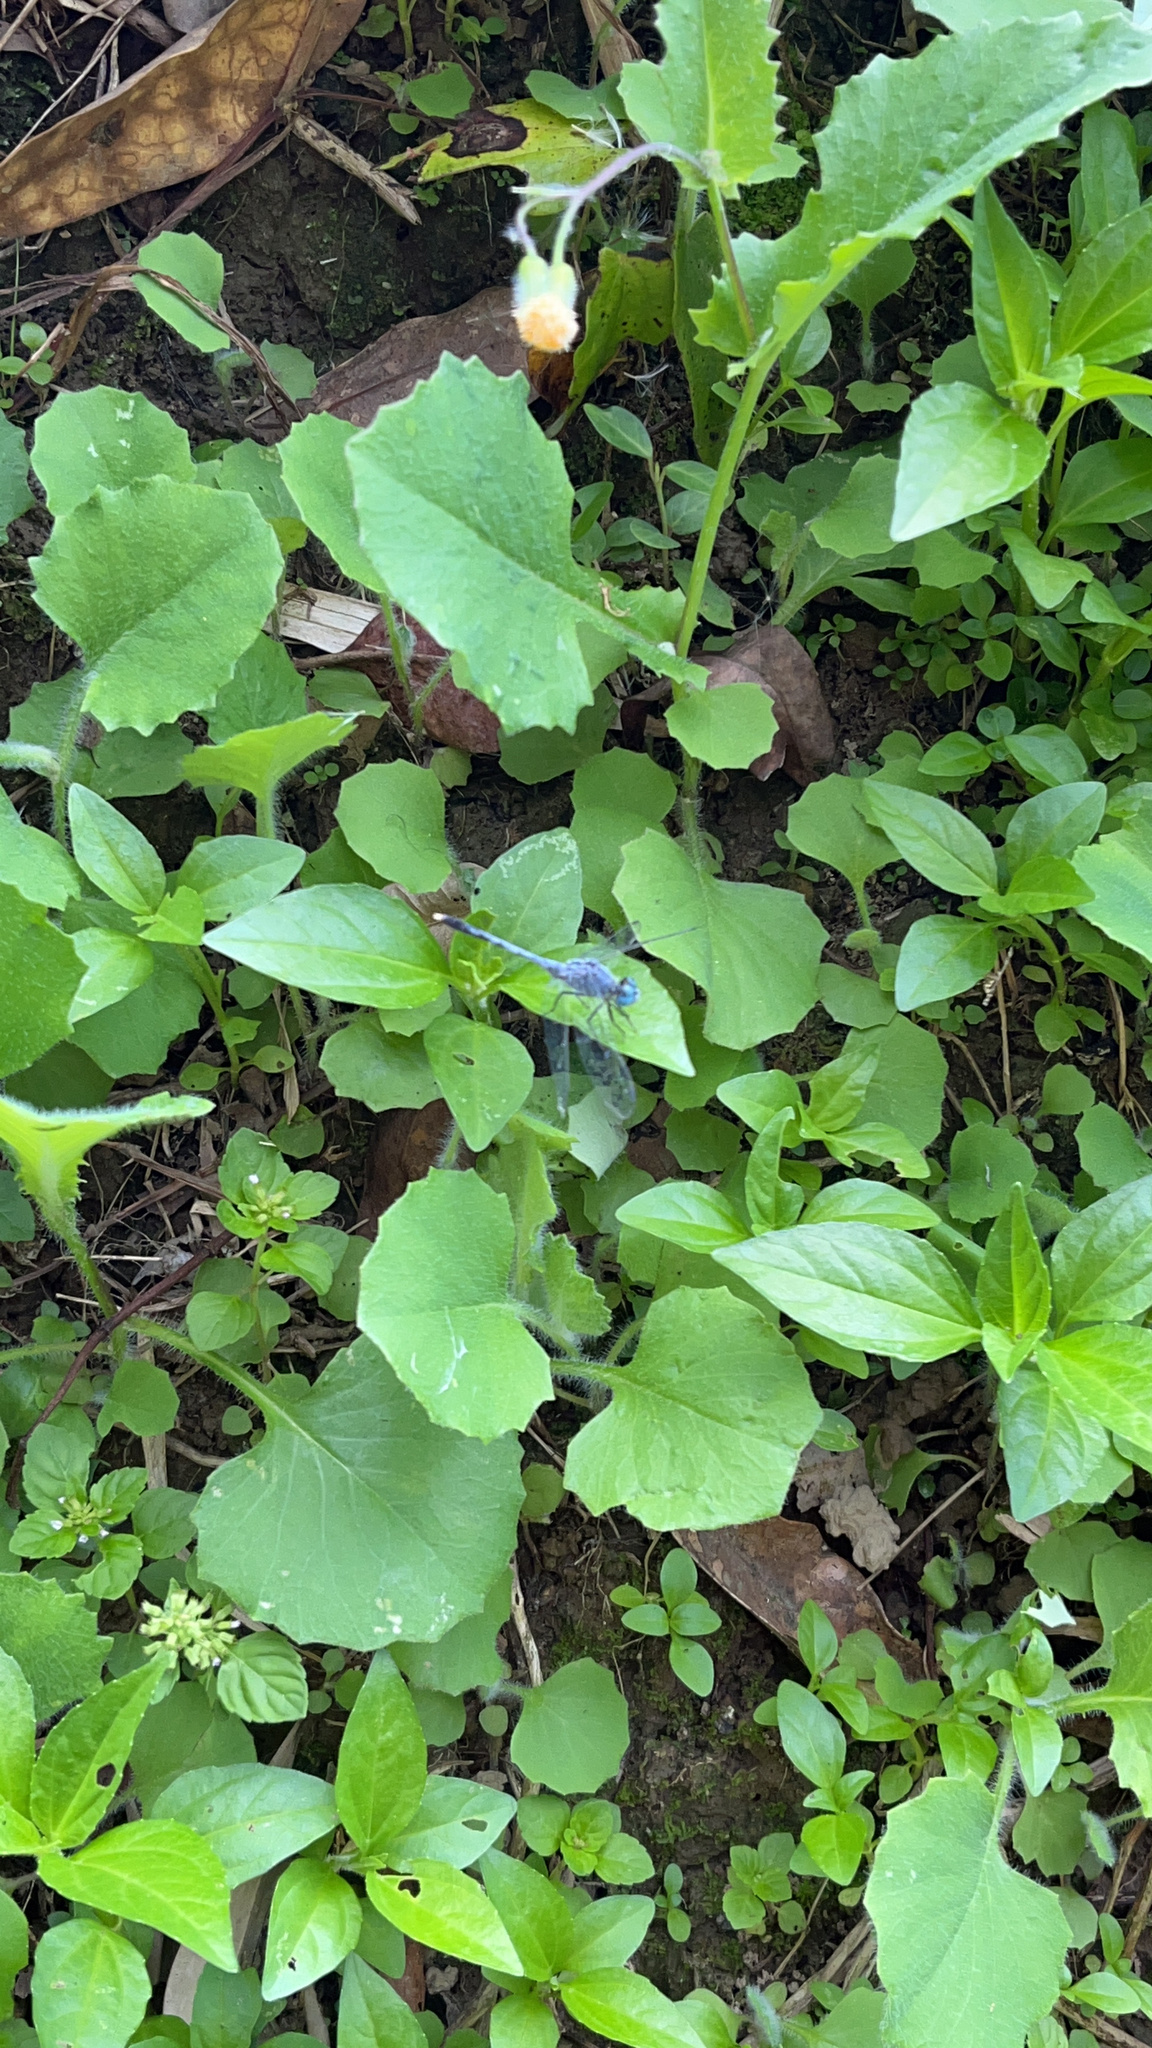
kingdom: Animalia
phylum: Arthropoda
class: Insecta
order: Odonata
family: Libellulidae
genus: Diplacodes
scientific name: Diplacodes trivialis
